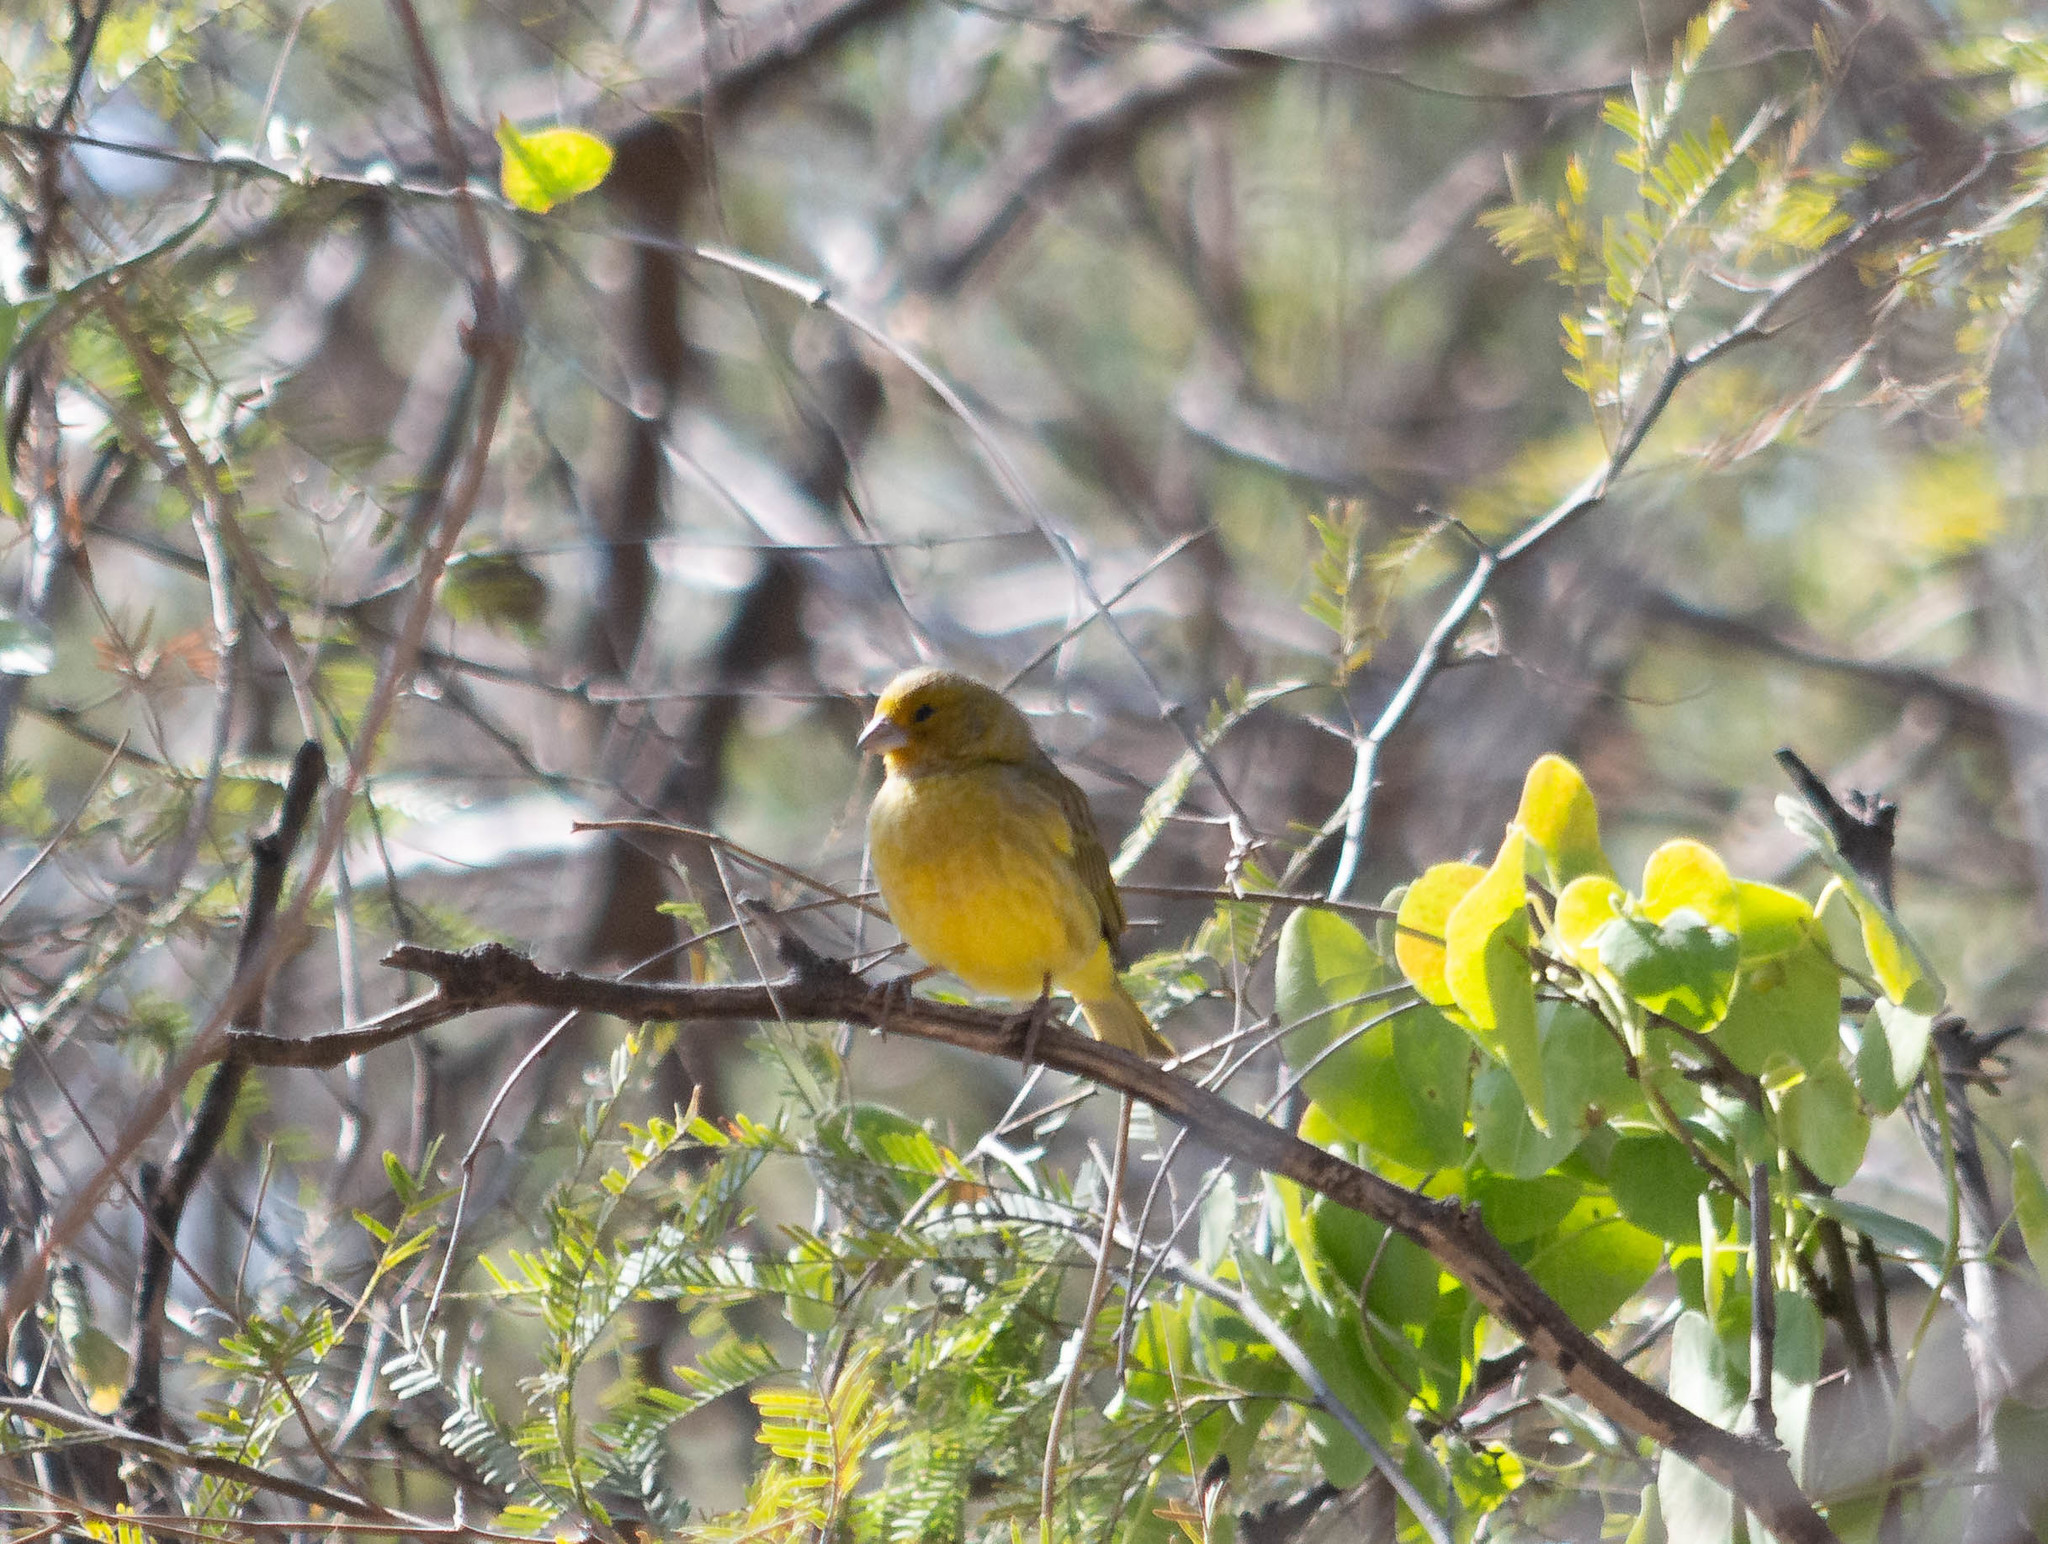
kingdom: Animalia
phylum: Chordata
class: Aves
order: Passeriformes
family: Thraupidae
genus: Sicalis
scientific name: Sicalis flaveola
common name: Saffron finch
